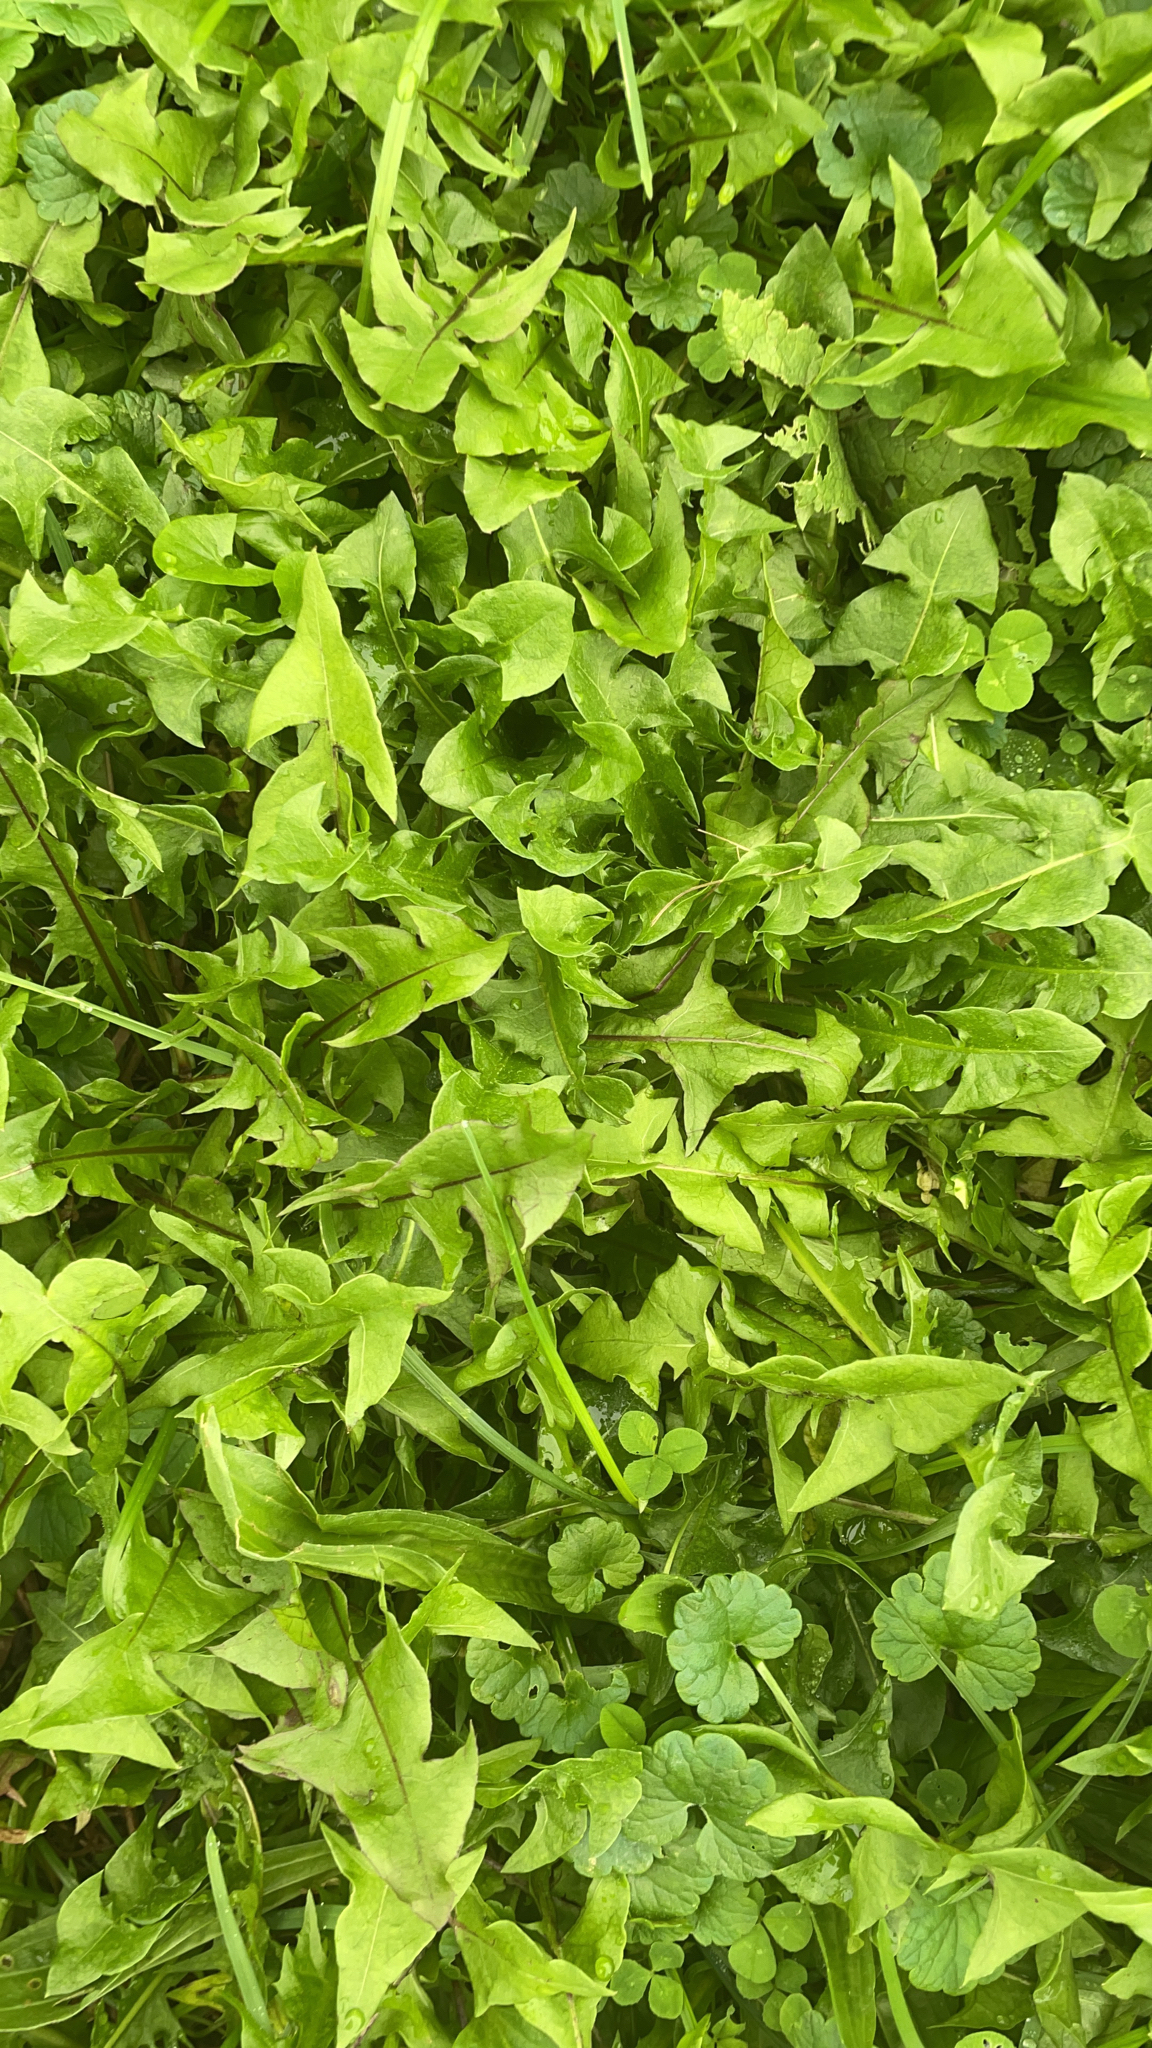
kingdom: Plantae
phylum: Tracheophyta
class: Magnoliopsida
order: Asterales
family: Asteraceae
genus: Taraxacum
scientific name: Taraxacum officinale
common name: Common dandelion
